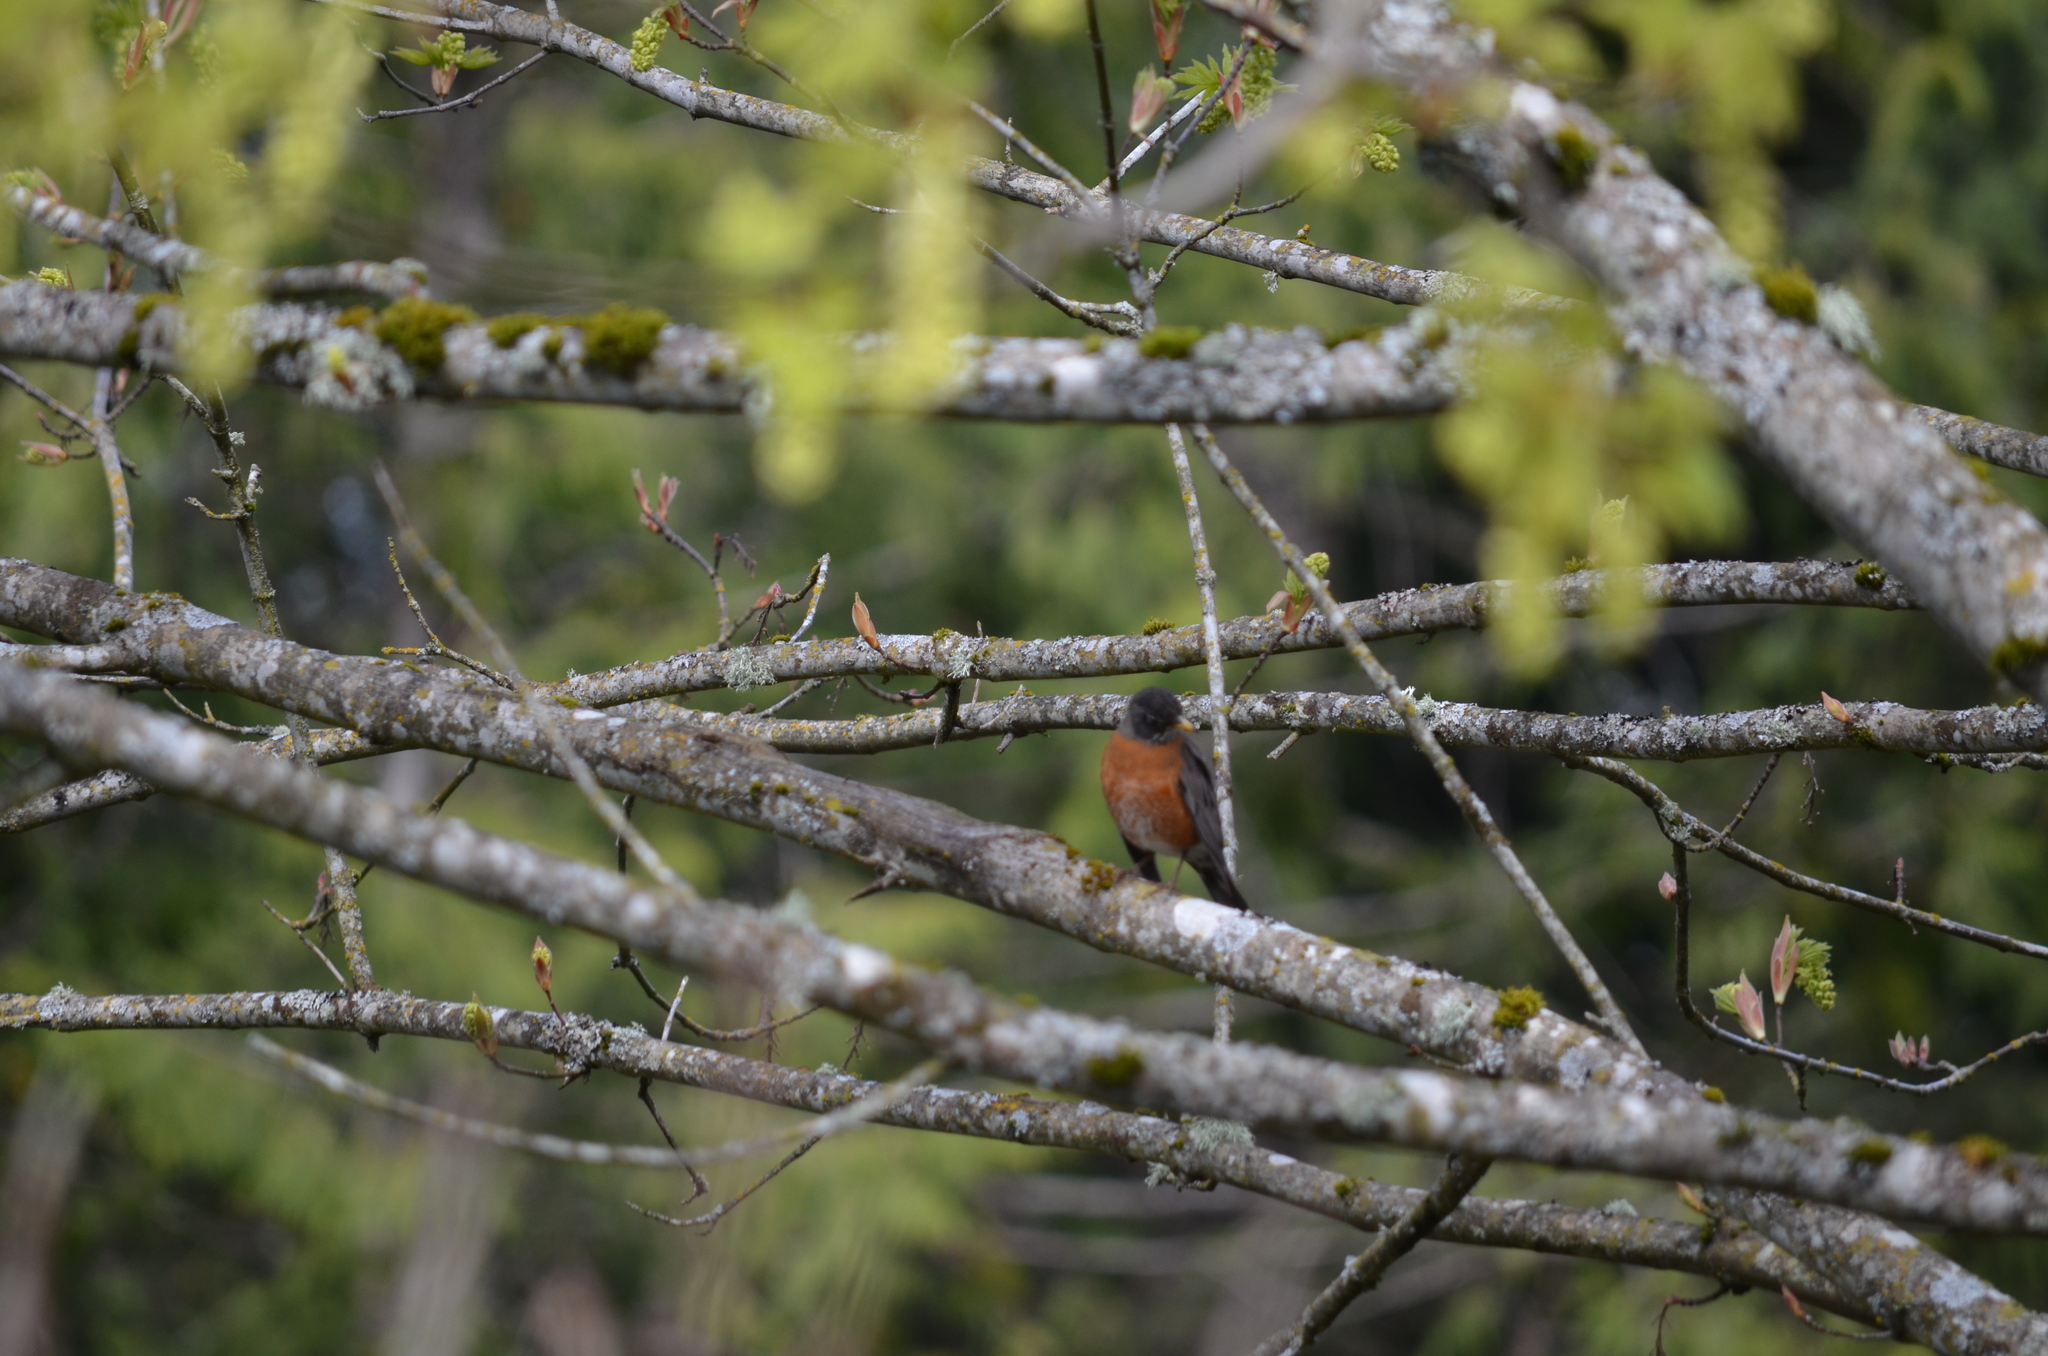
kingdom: Animalia
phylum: Chordata
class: Aves
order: Passeriformes
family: Turdidae
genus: Turdus
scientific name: Turdus migratorius
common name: American robin
